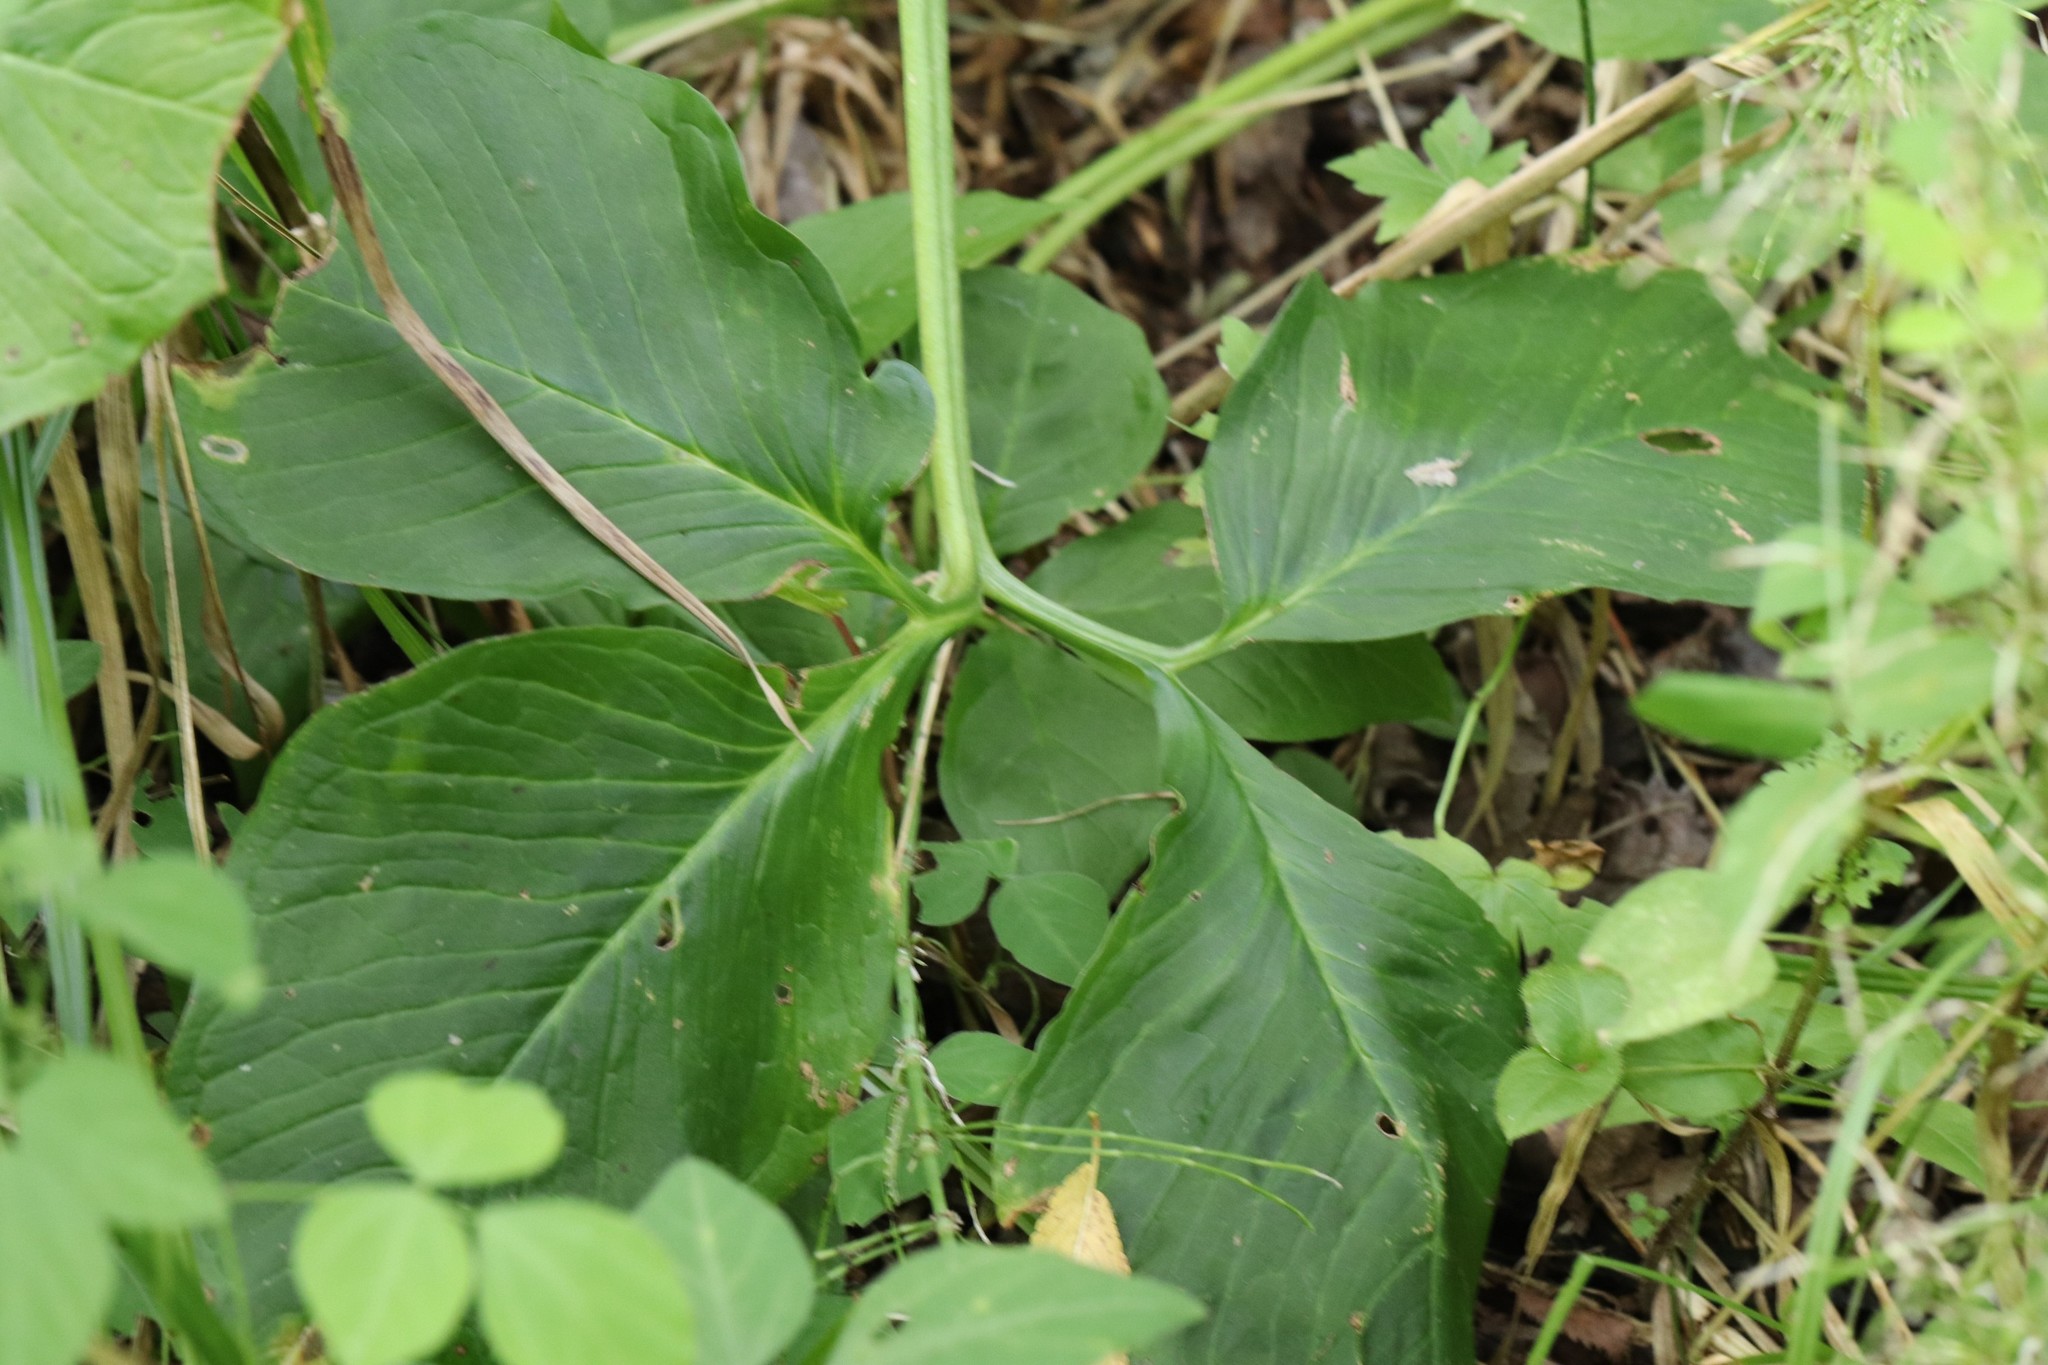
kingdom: Plantae
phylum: Tracheophyta
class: Liliopsida
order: Alismatales
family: Araceae
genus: Arisaema
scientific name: Arisaema amurense
